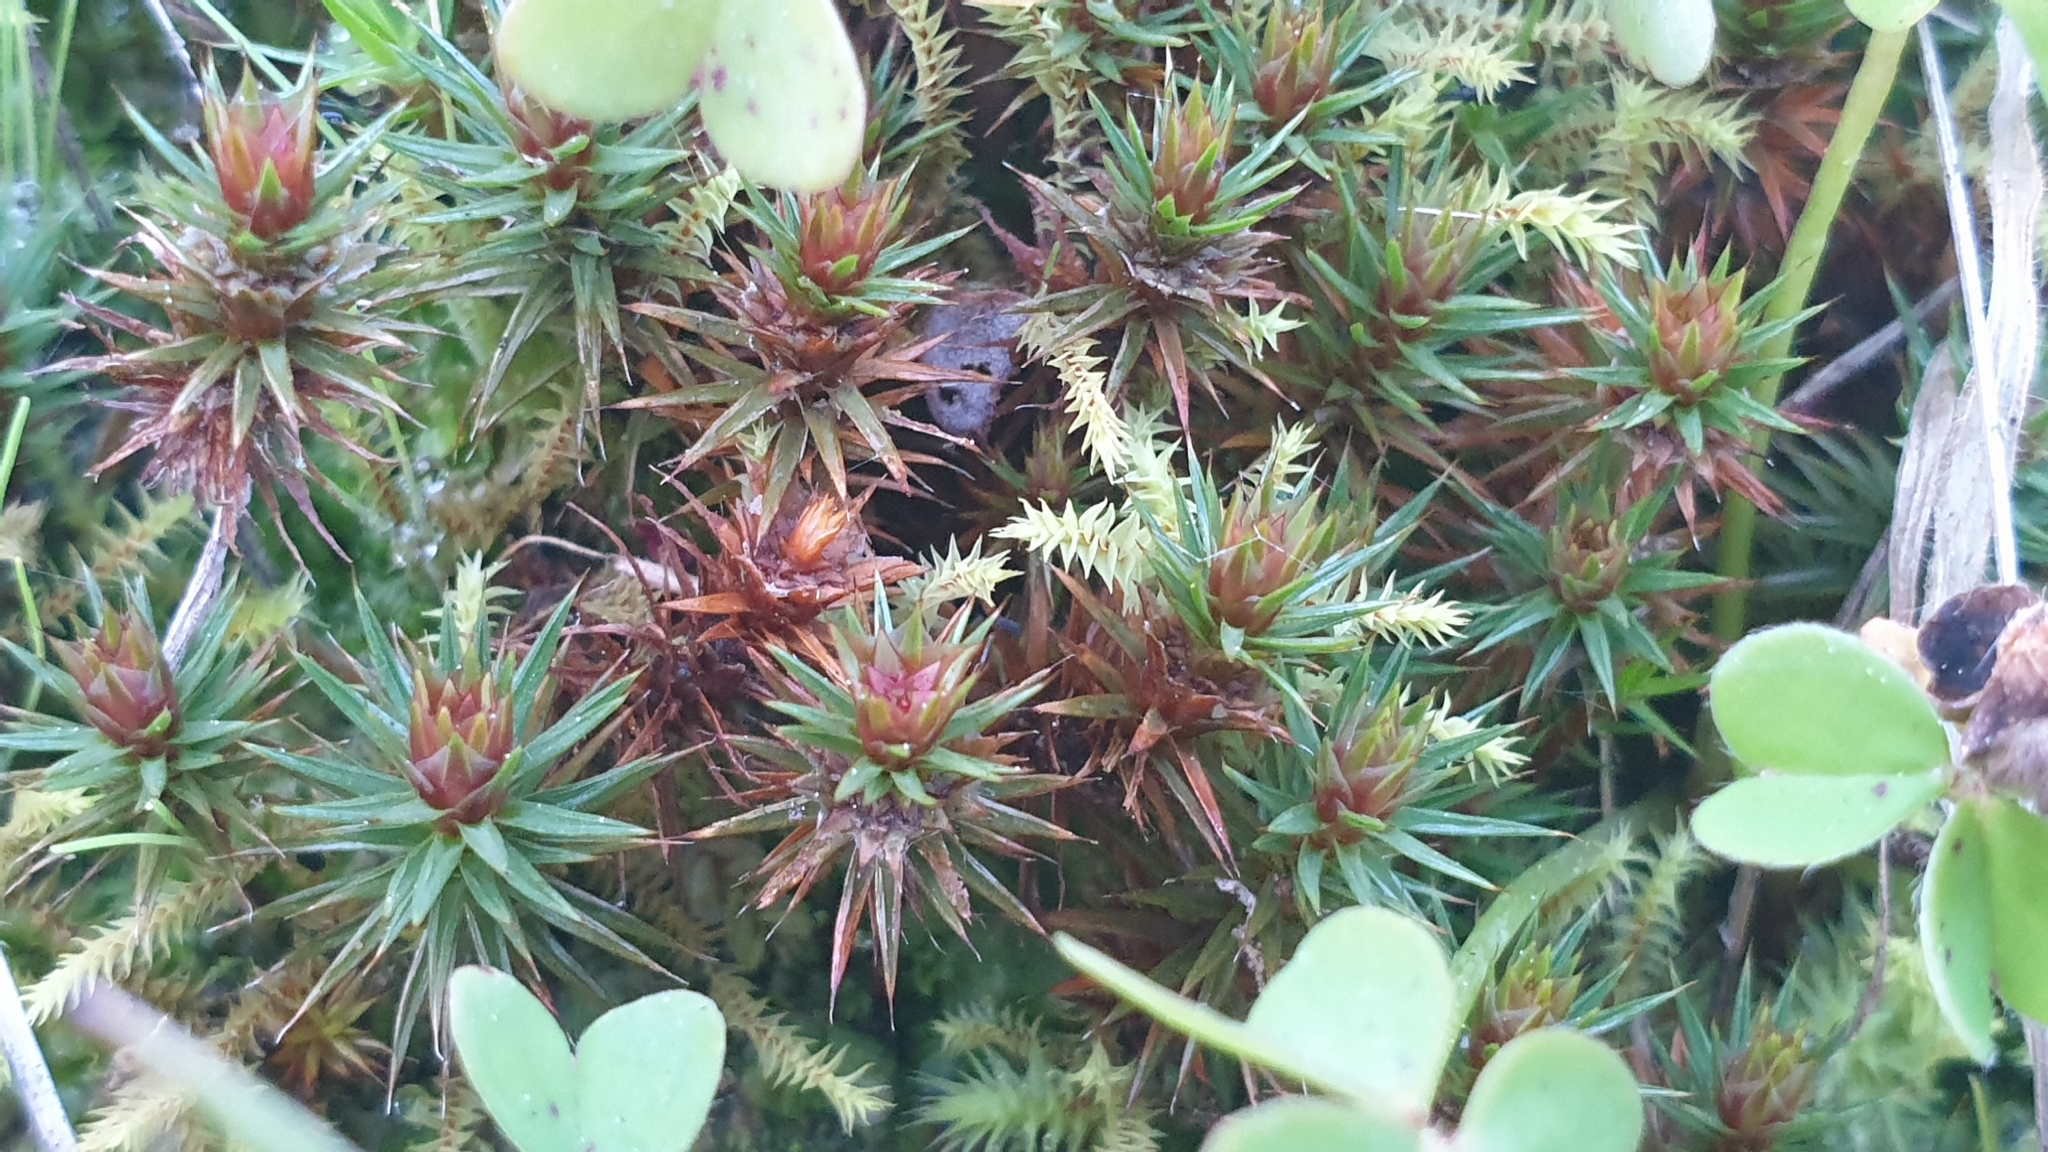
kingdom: Plantae
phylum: Bryophyta
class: Polytrichopsida
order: Polytrichales
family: Polytrichaceae
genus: Polytrichum
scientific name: Polytrichum juniperinum
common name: Juniper haircap moss
